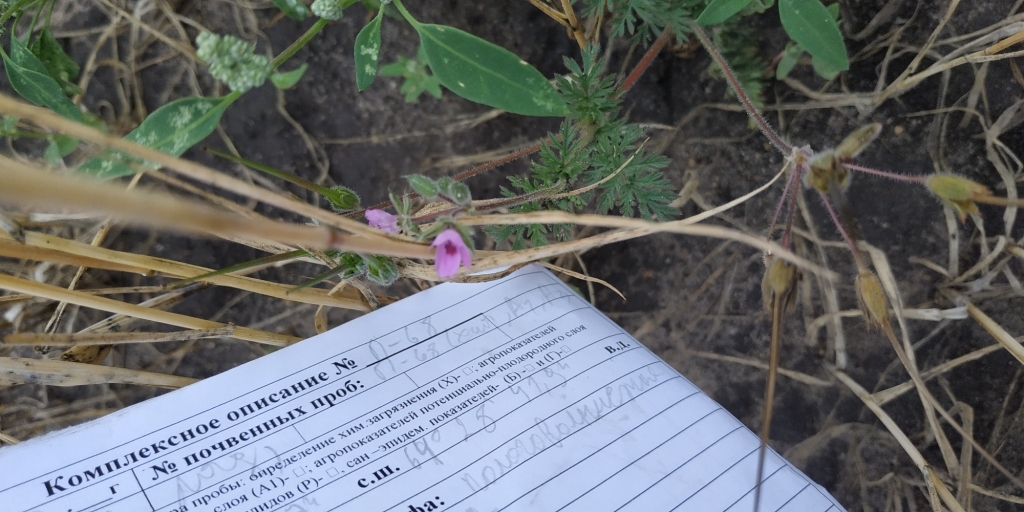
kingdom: Plantae
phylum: Tracheophyta
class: Magnoliopsida
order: Geraniales
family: Geraniaceae
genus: Erodium
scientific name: Erodium cicutarium
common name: Common stork's-bill
